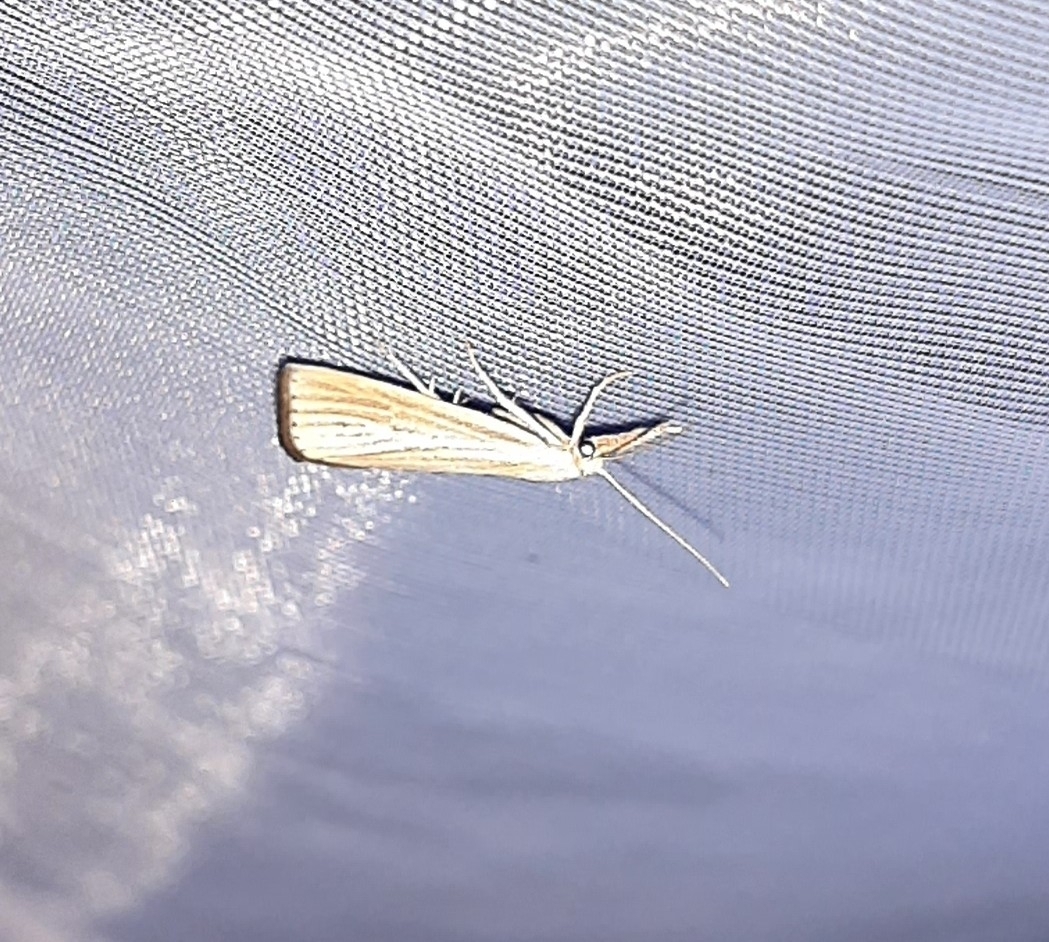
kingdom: Animalia
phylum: Arthropoda
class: Insecta
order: Lepidoptera
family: Crambidae
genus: Agriphila
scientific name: Agriphila straminella
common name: Straw grass-veneer
